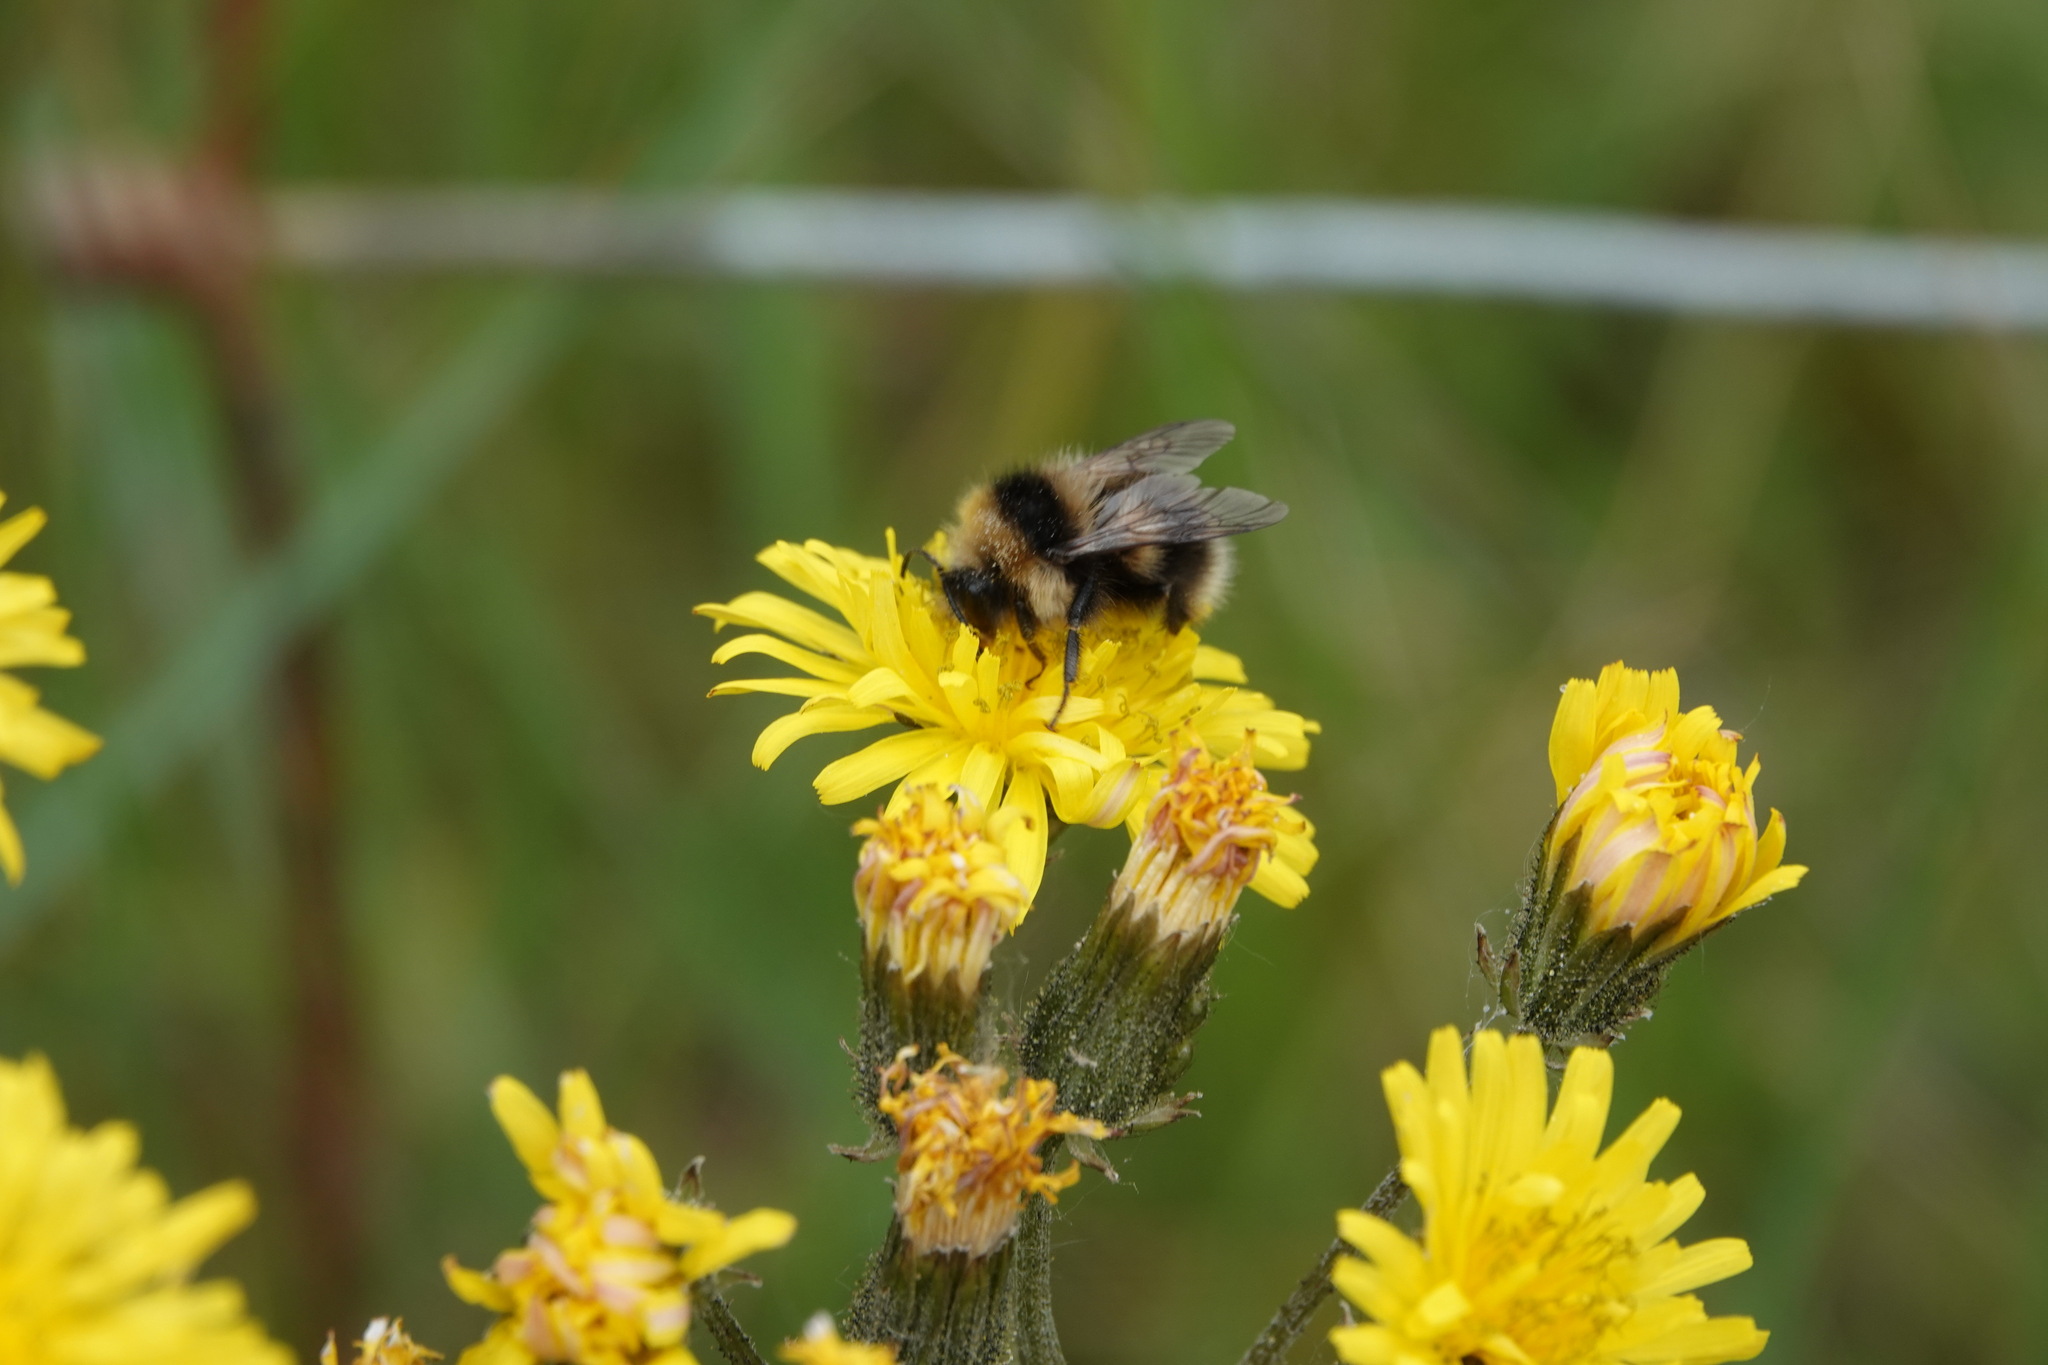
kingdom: Animalia
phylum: Arthropoda
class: Insecta
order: Hymenoptera
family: Apidae
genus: Bombus
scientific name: Bombus jonellus
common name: Heath humble-bee
